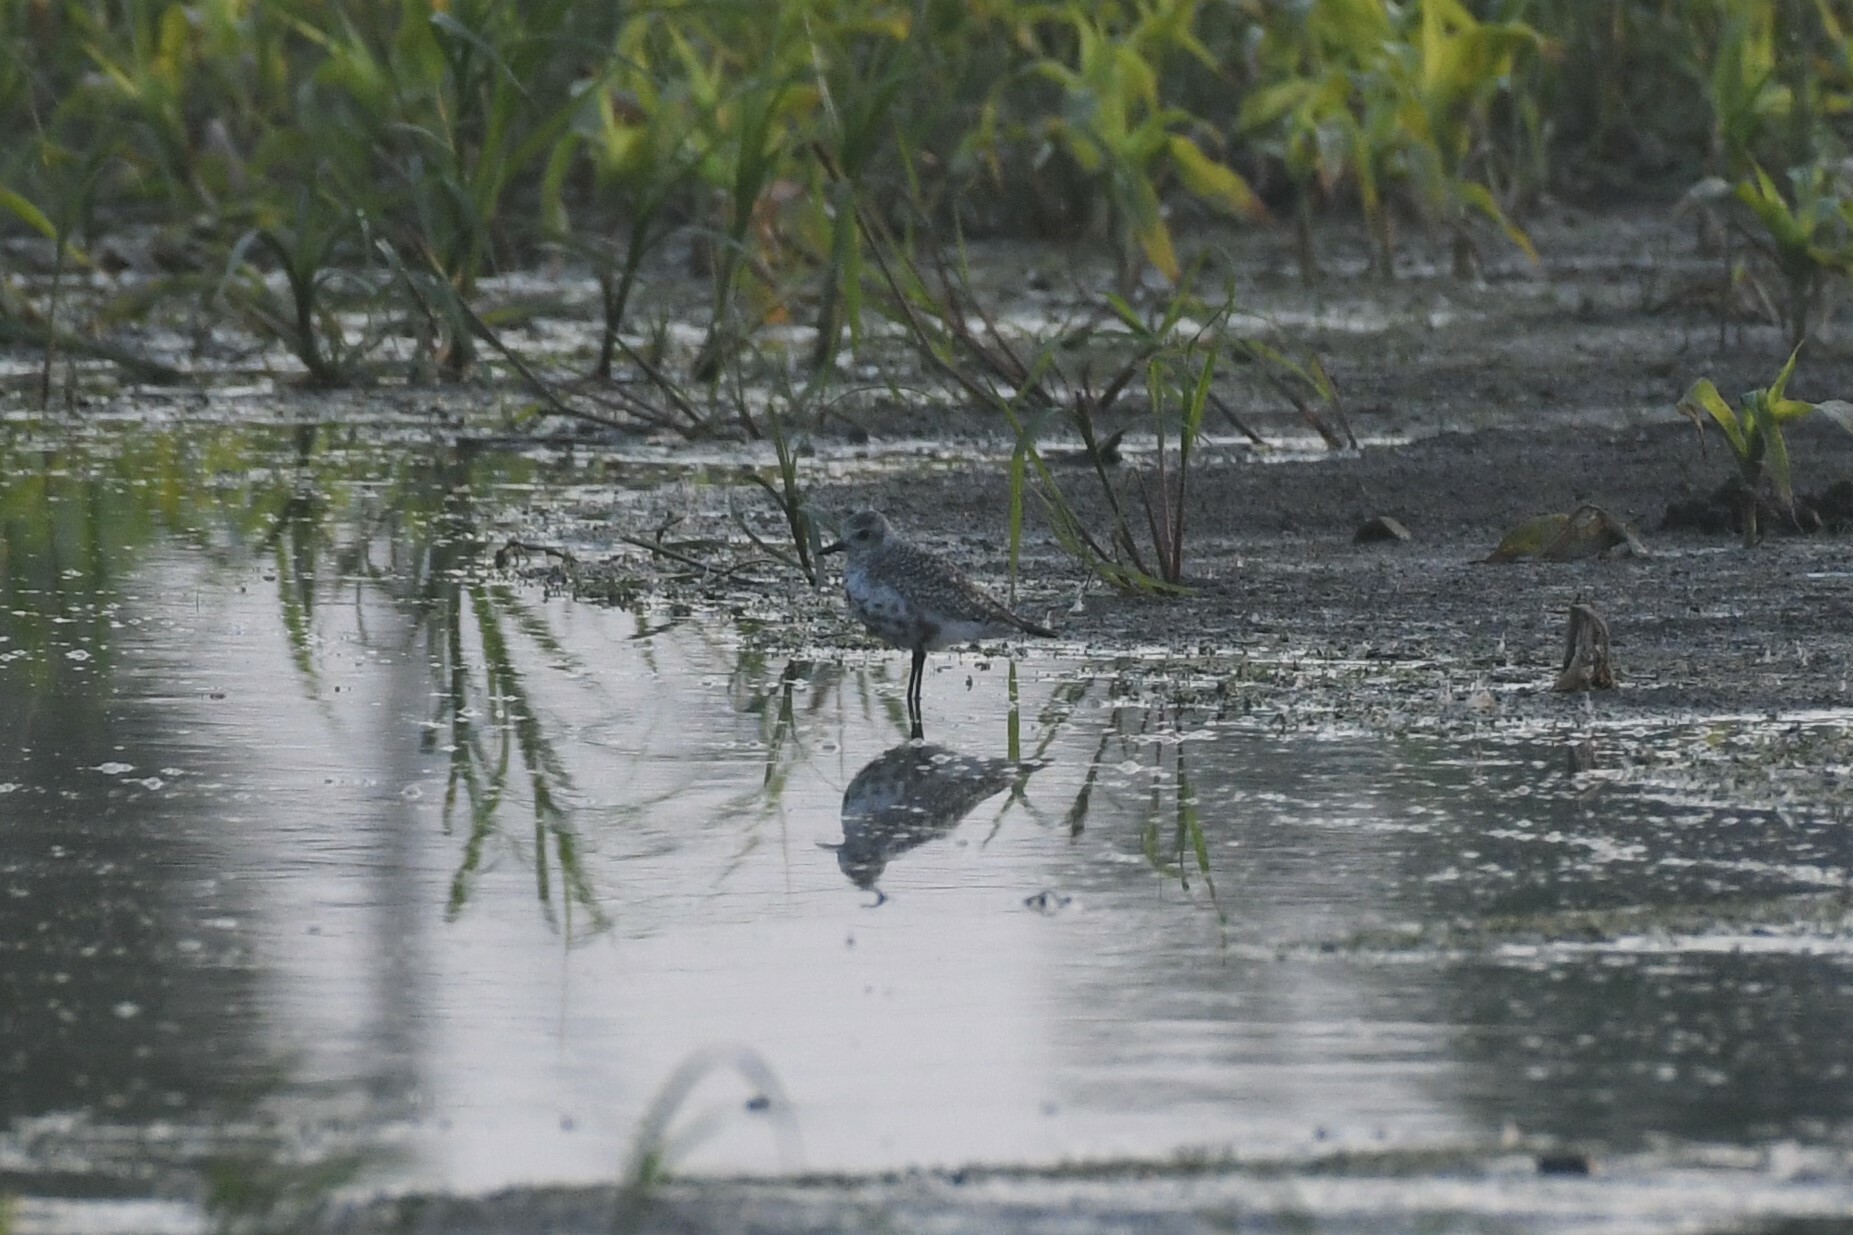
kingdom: Animalia
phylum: Chordata
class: Aves
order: Charadriiformes
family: Charadriidae
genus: Pluvialis
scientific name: Pluvialis squatarola
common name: Grey plover
